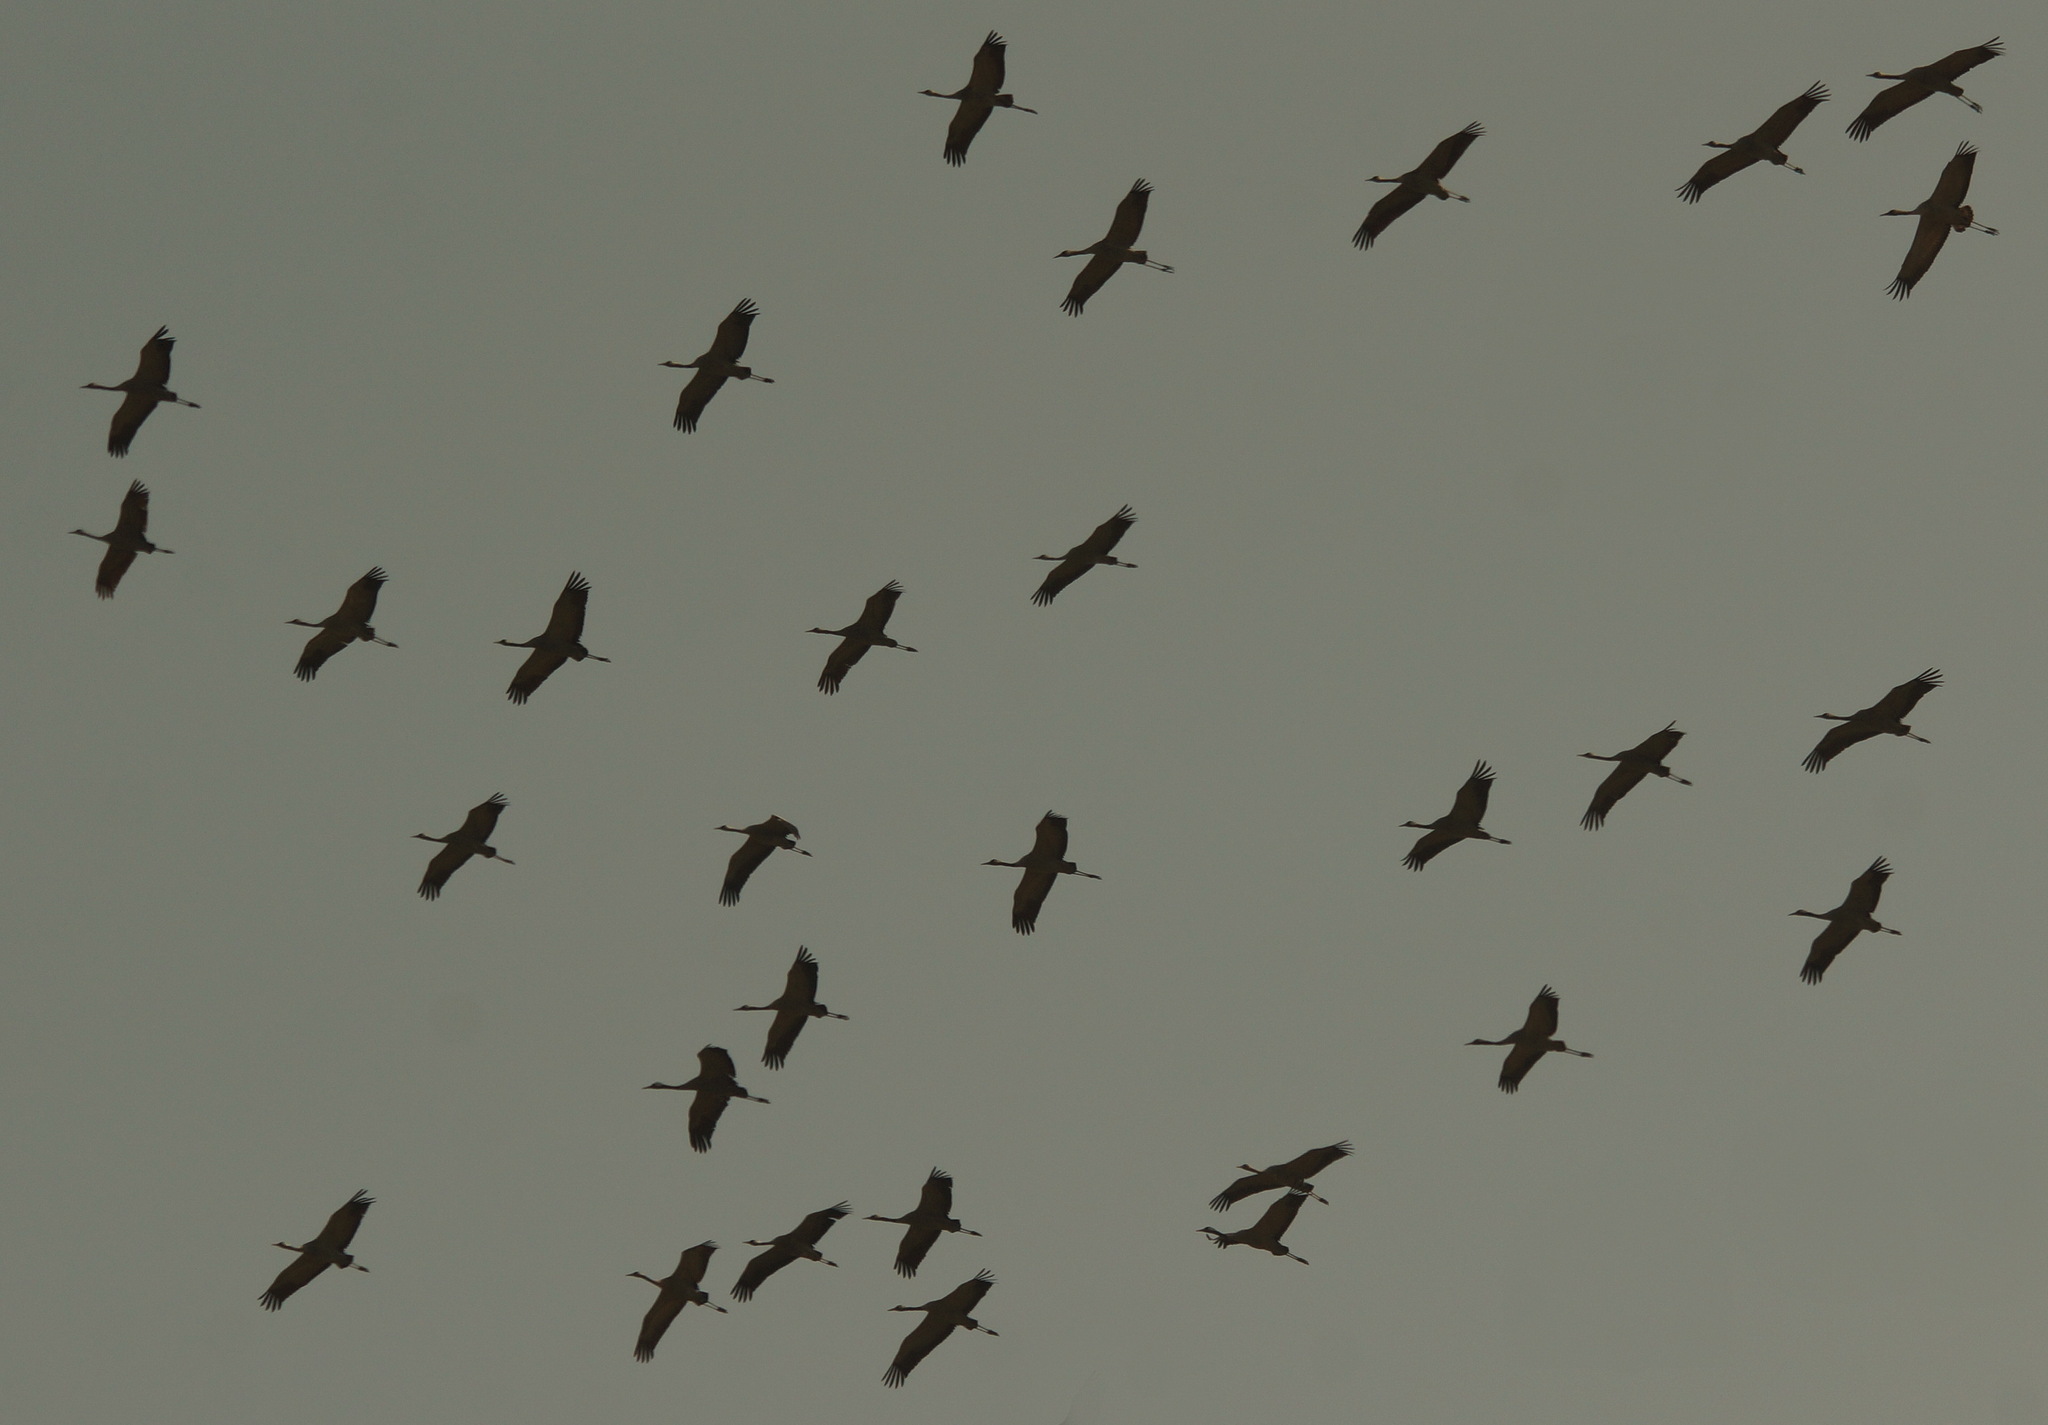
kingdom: Animalia
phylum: Chordata
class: Aves
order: Gruiformes
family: Gruidae
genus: Grus
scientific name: Grus grus
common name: Common crane
